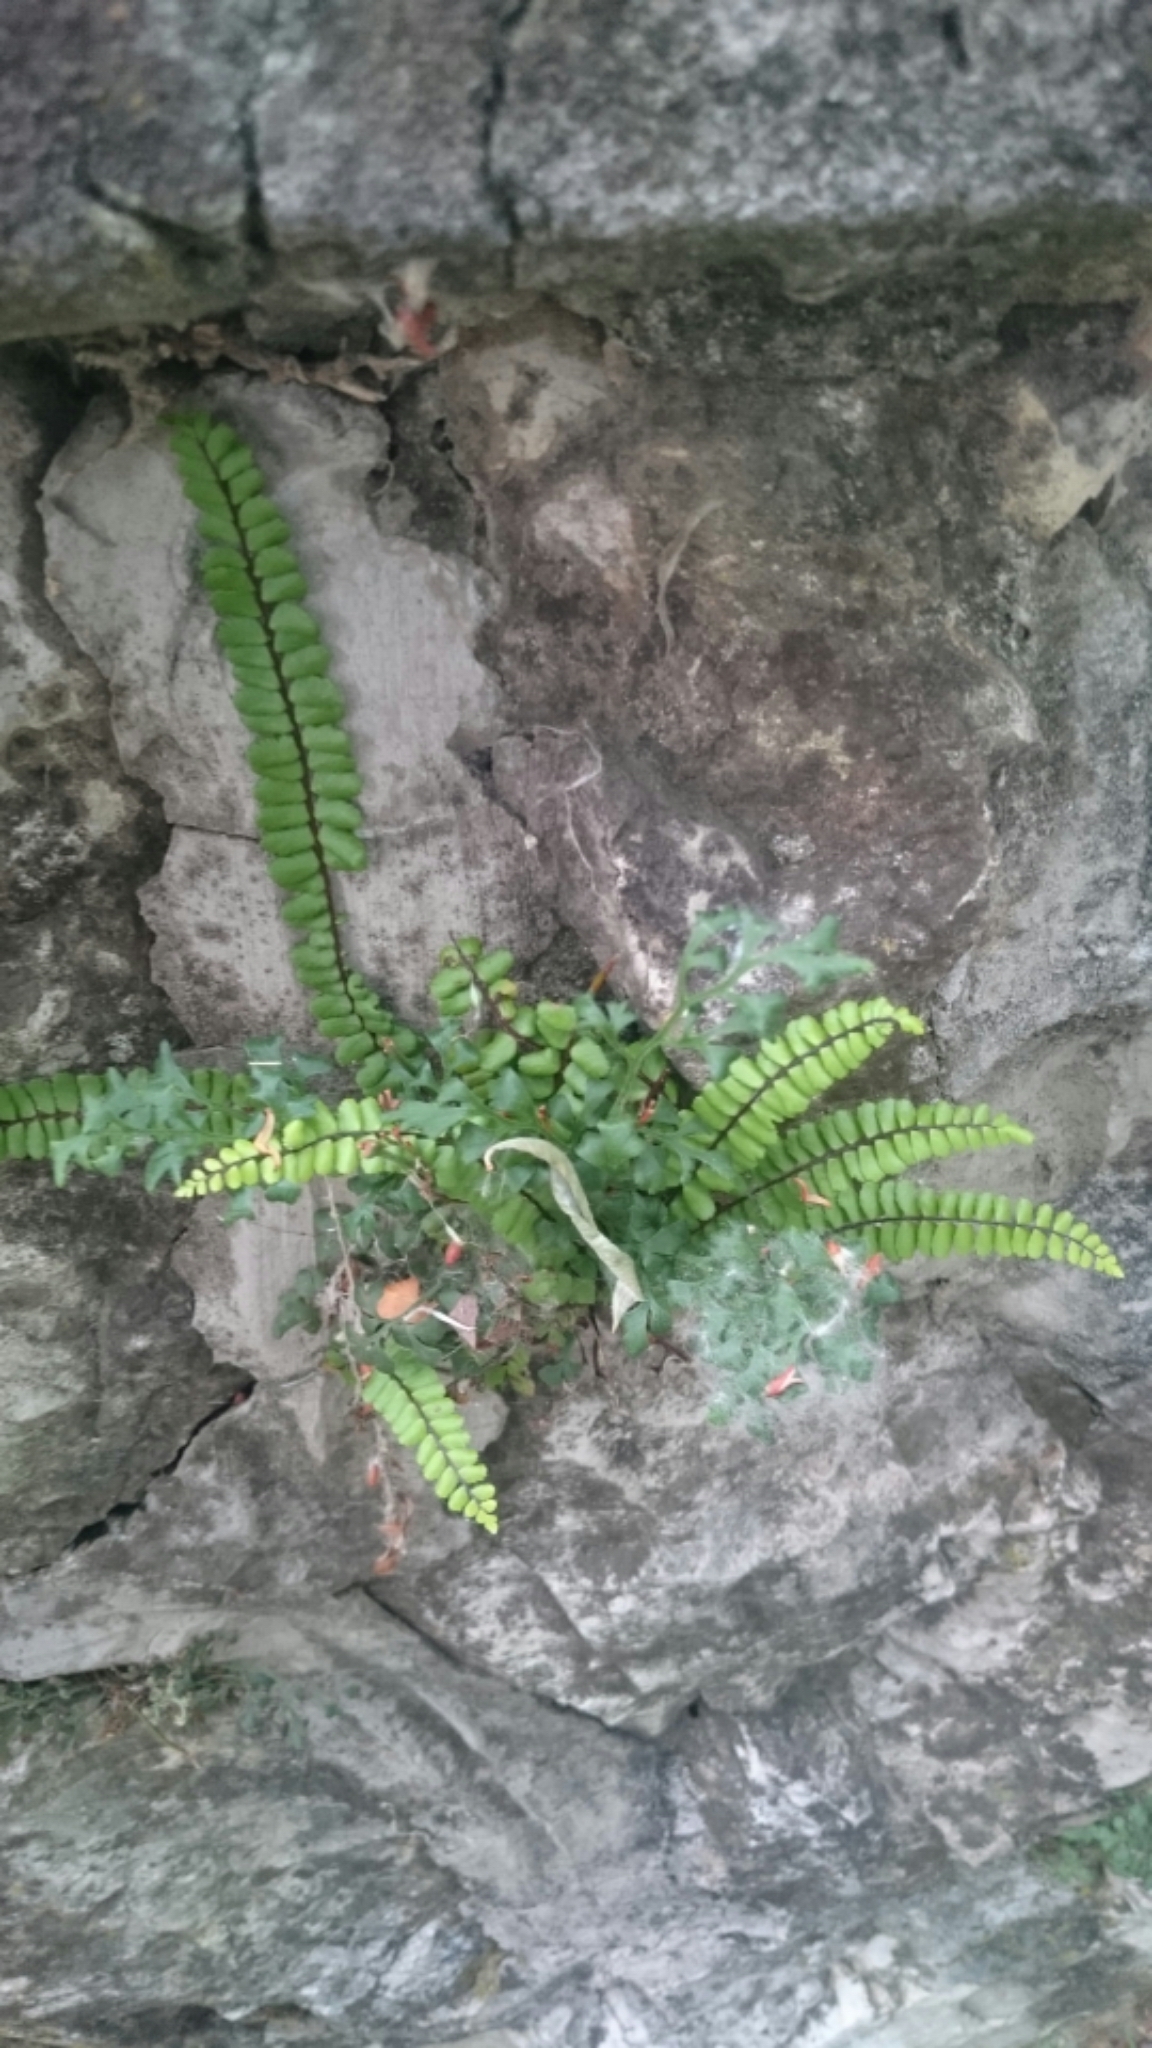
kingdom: Plantae
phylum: Tracheophyta
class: Polypodiopsida
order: Polypodiales
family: Aspleniaceae
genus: Asplenium
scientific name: Asplenium trichomanes
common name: Maidenhair spleenwort
